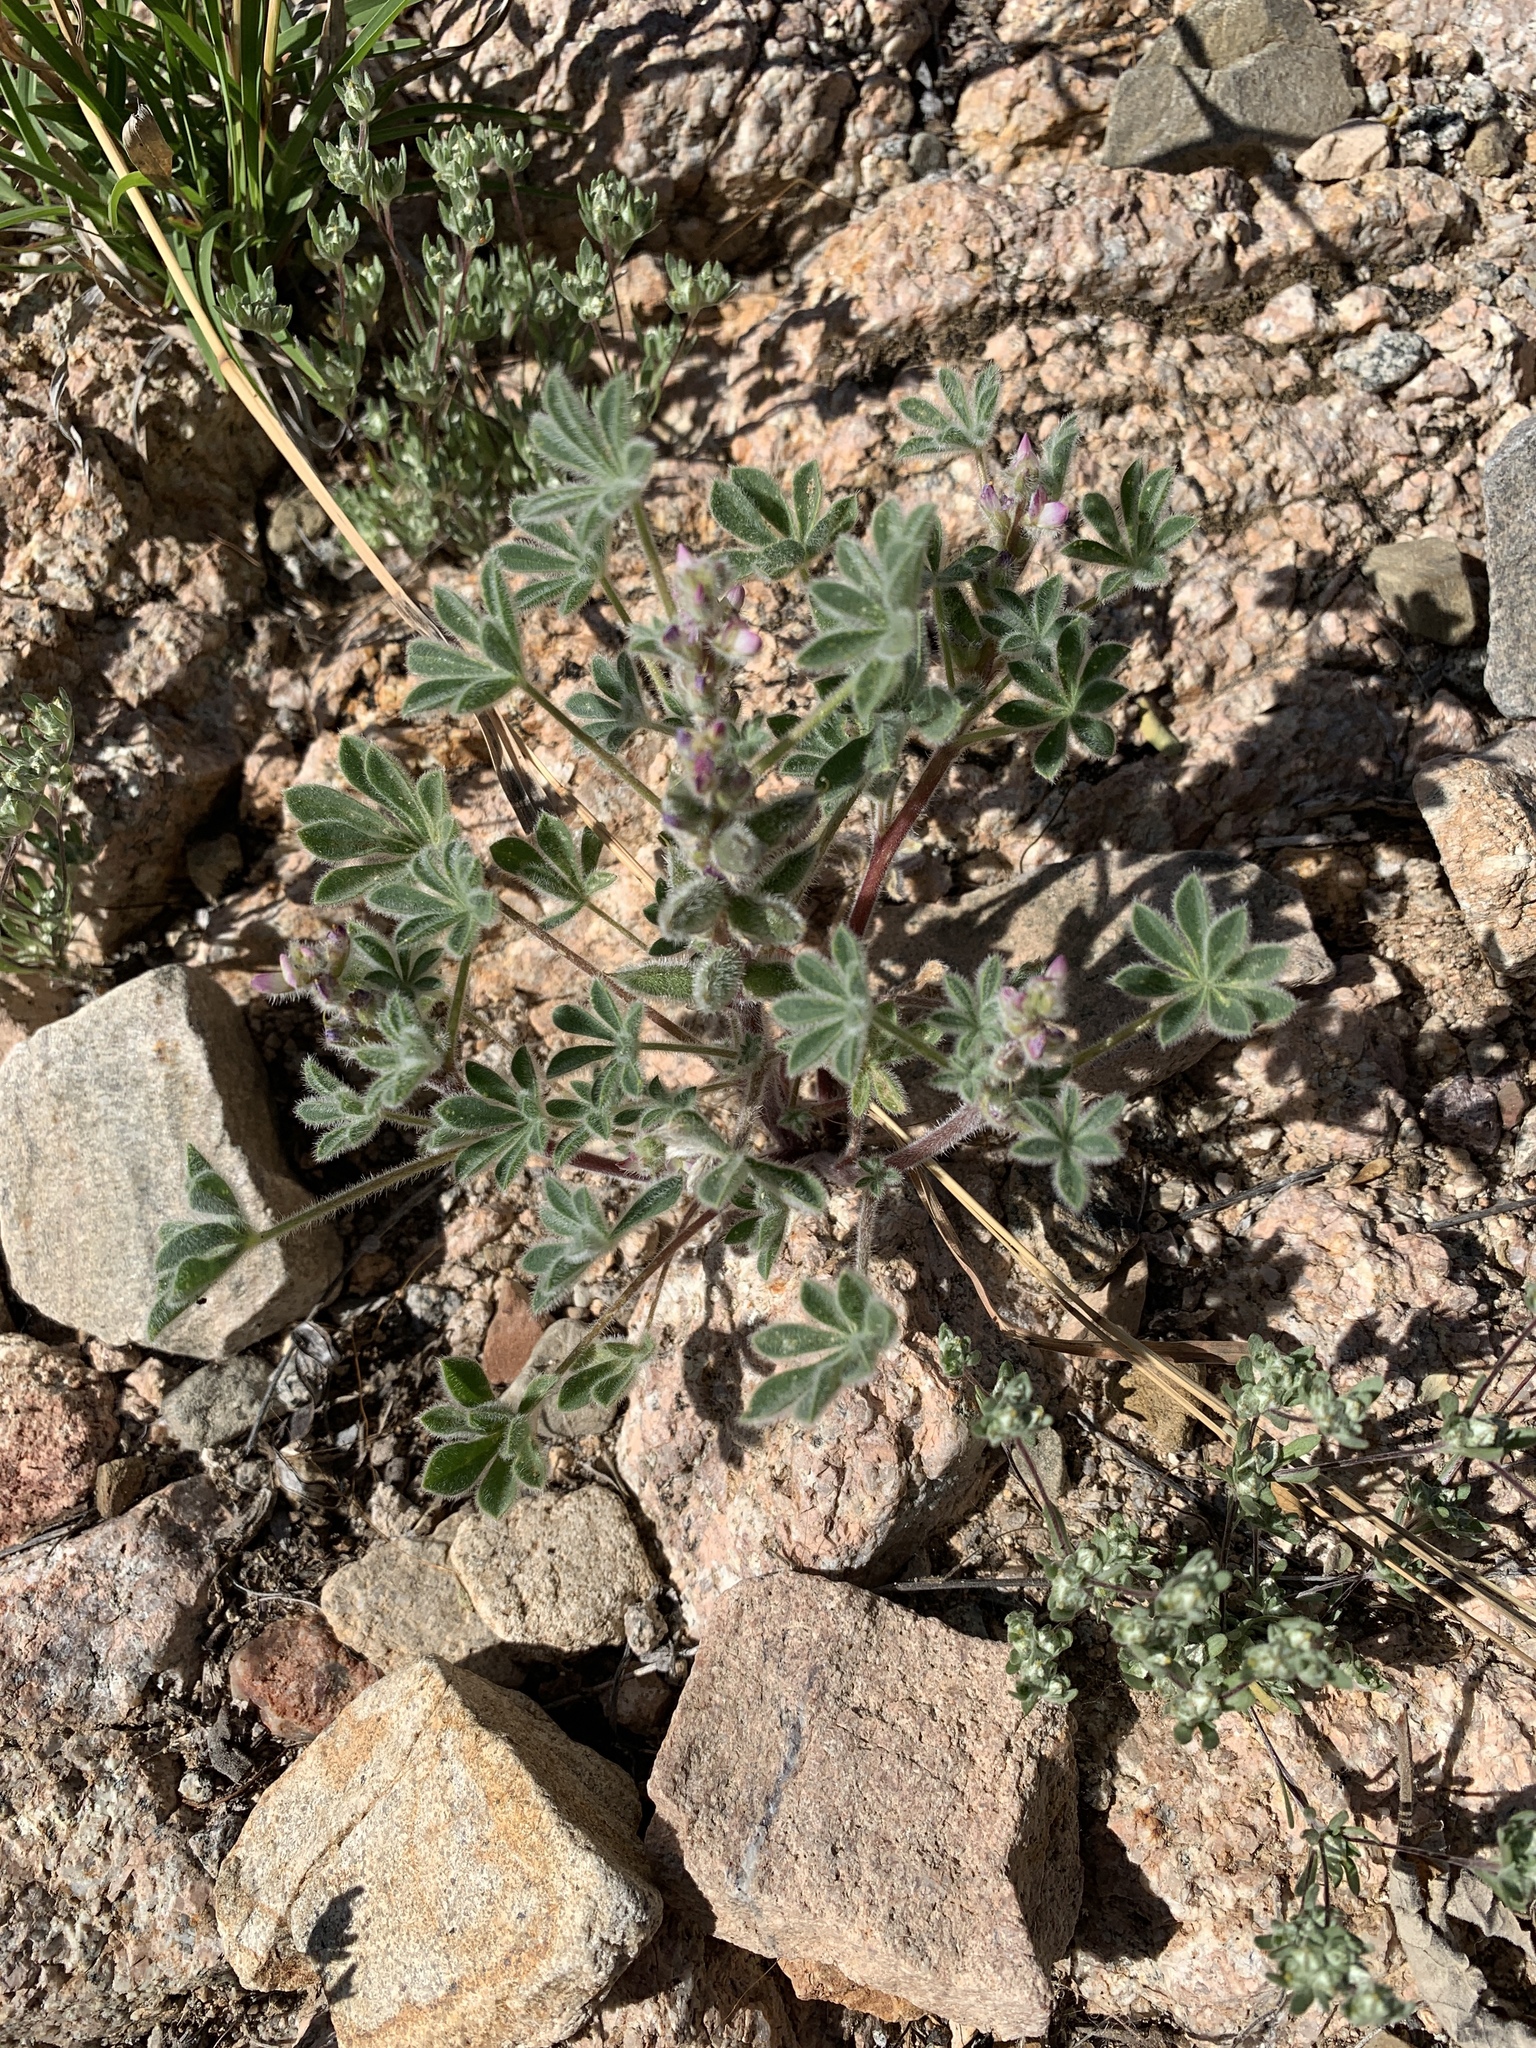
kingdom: Plantae
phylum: Tracheophyta
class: Magnoliopsida
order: Fabales
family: Fabaceae
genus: Lupinus
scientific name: Lupinus concinnus
